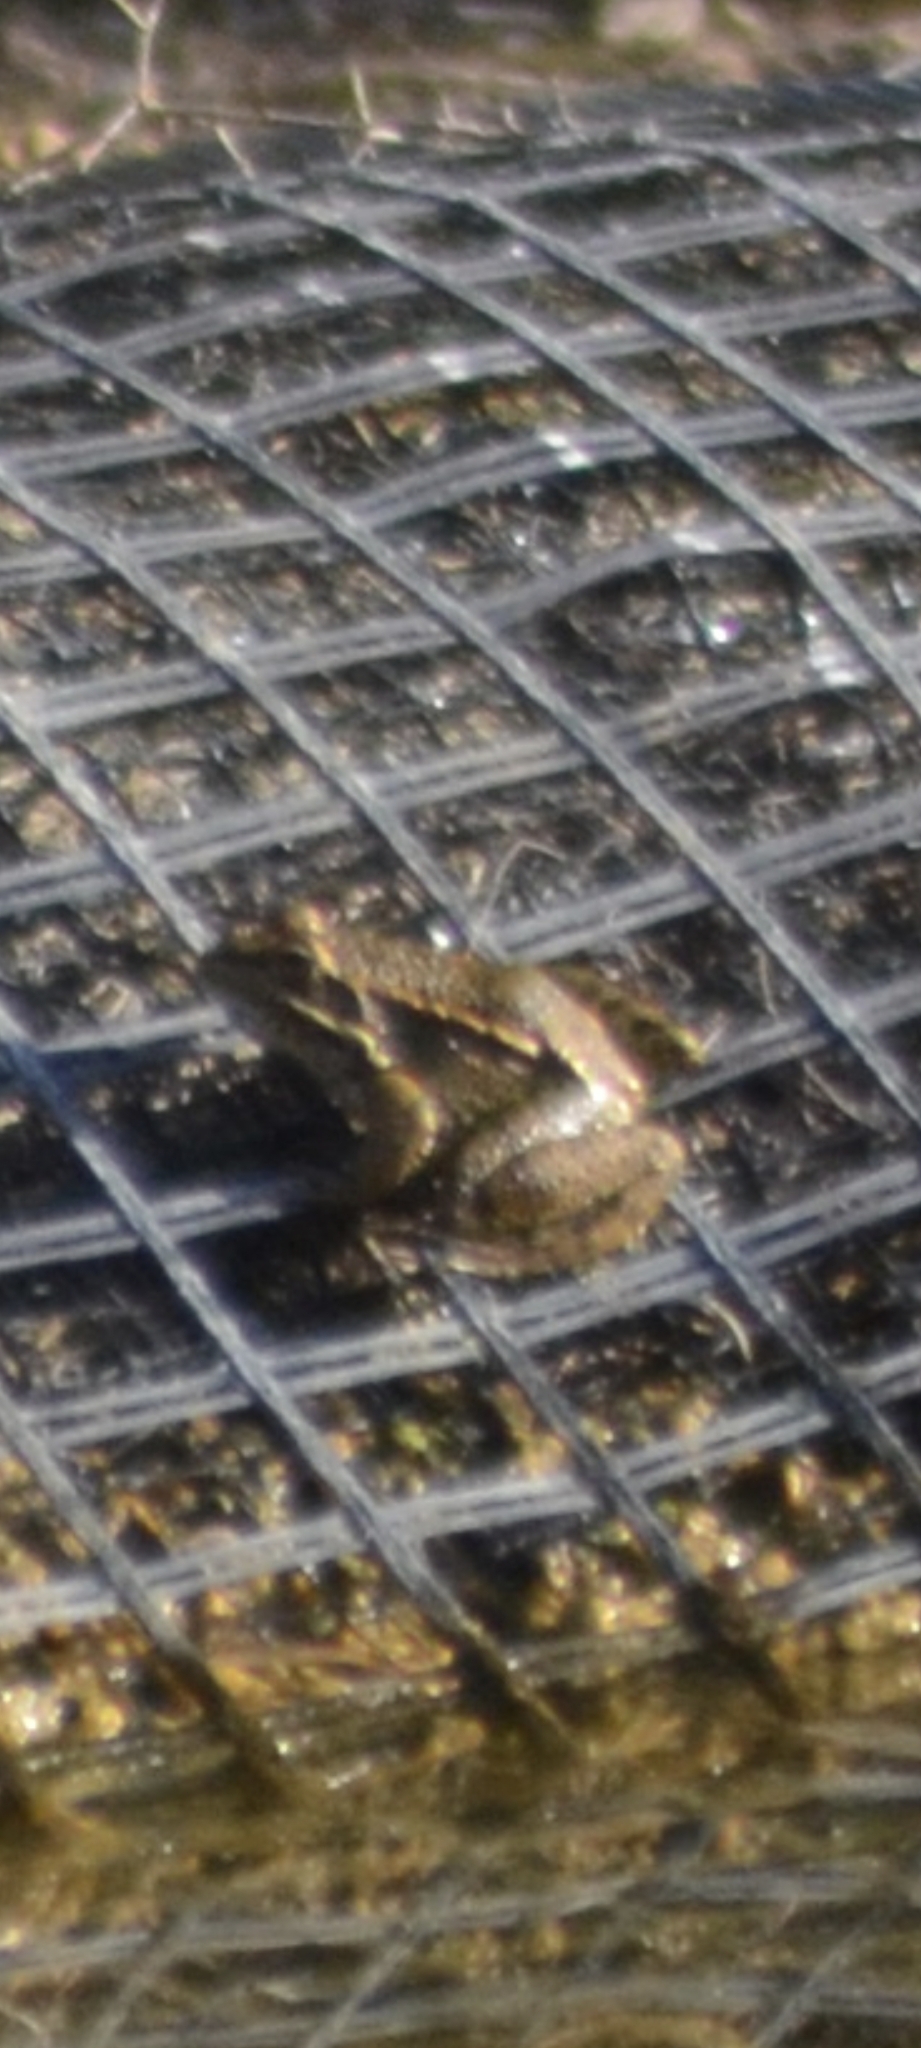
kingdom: Animalia
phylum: Chordata
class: Amphibia
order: Anura
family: Ranidae
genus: Pelophylax
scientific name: Pelophylax perezi
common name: Perez's frog
